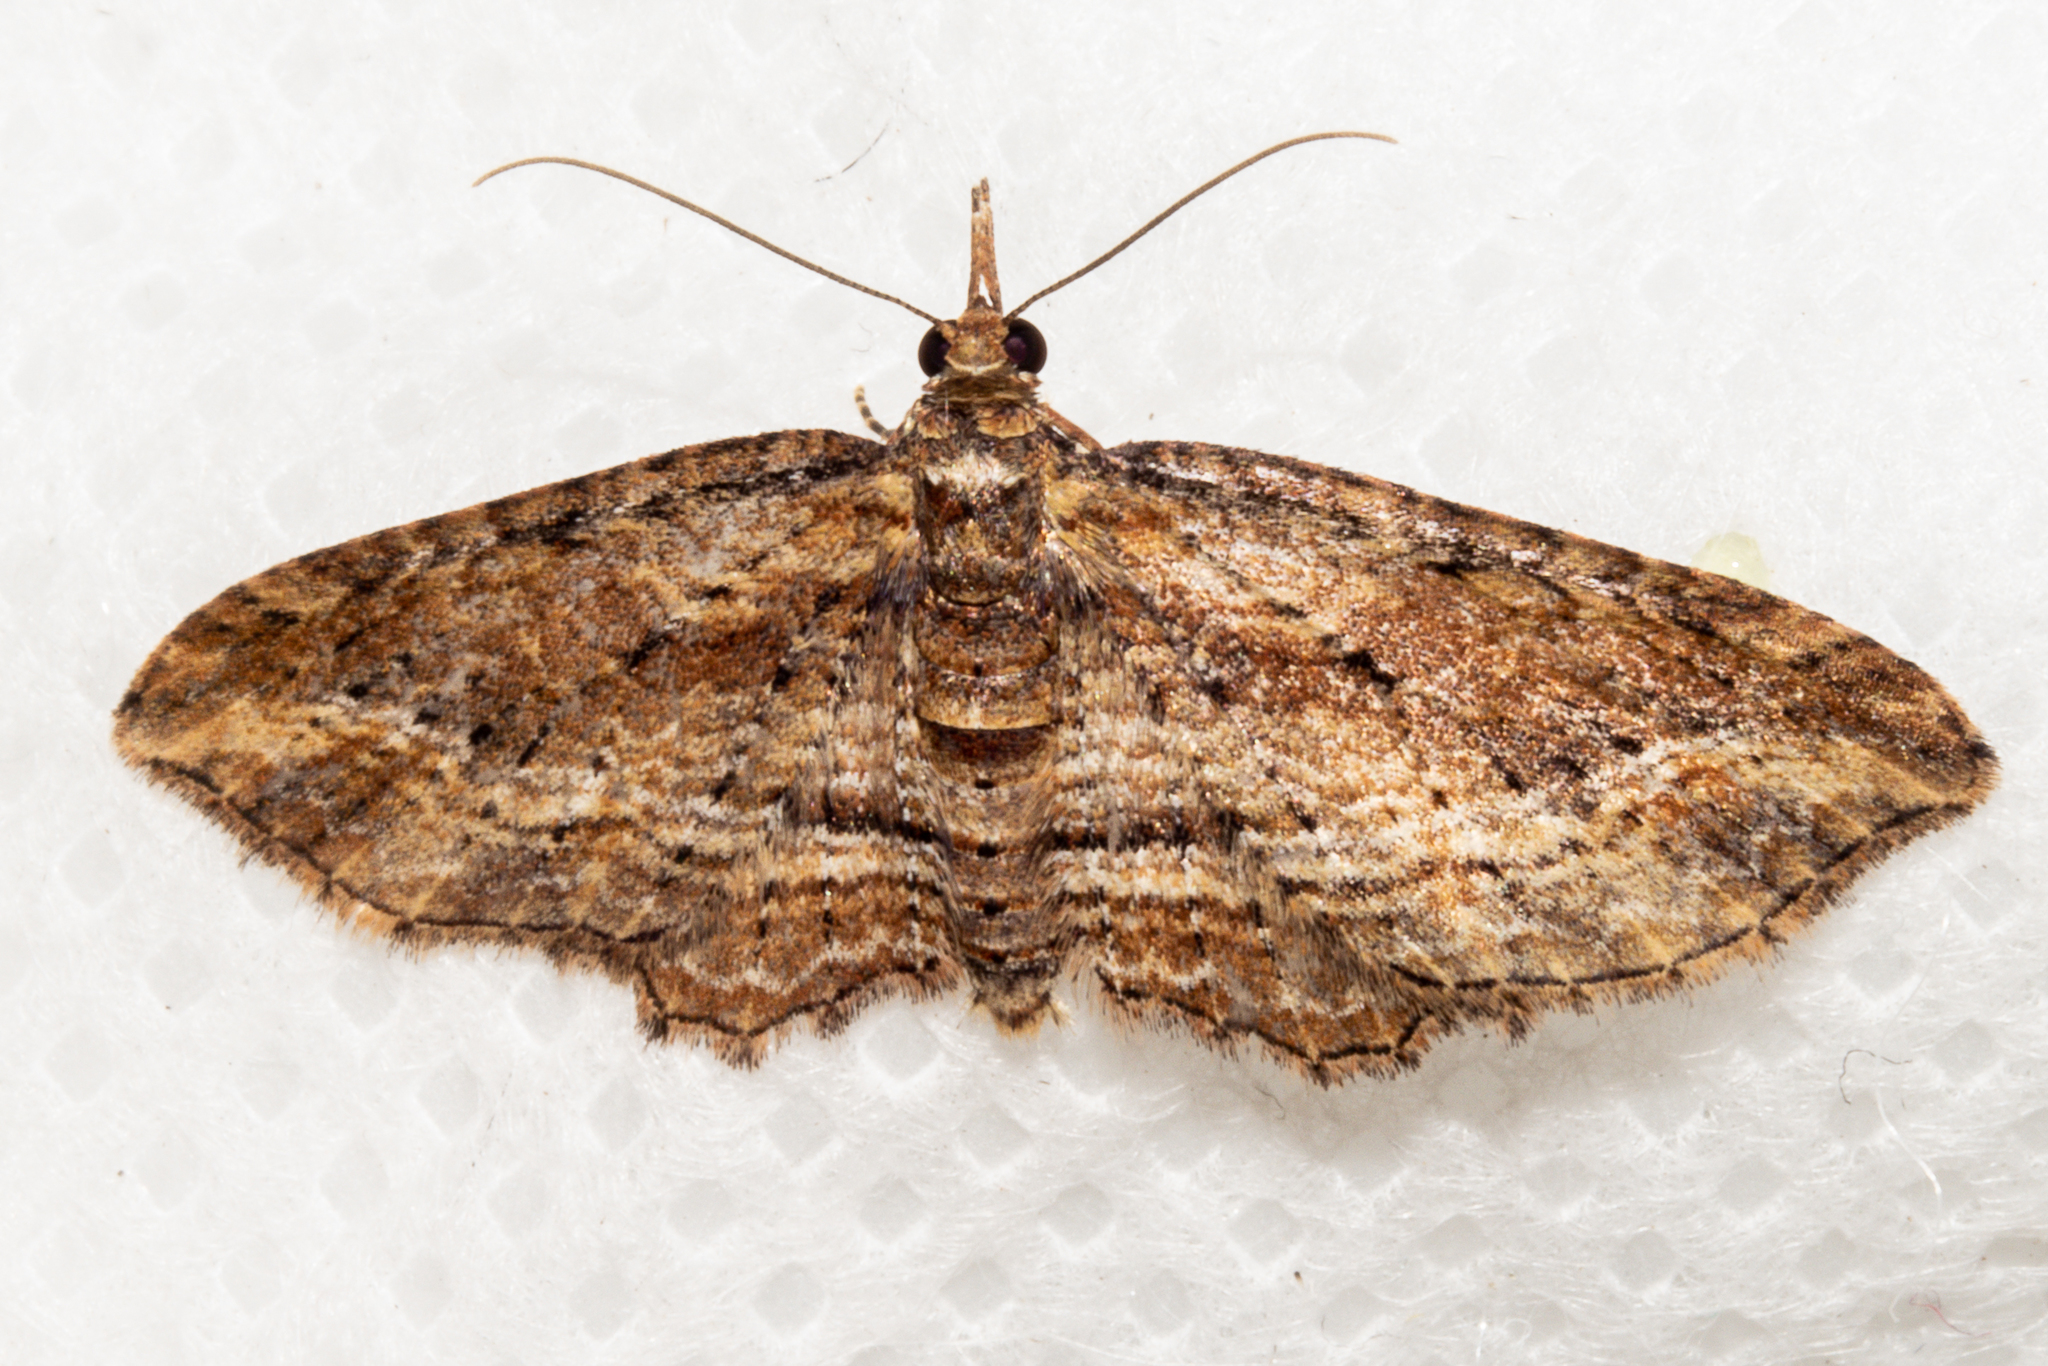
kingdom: Animalia
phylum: Arthropoda
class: Insecta
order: Lepidoptera
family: Geometridae
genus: Idaea
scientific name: Idaea mutanda
